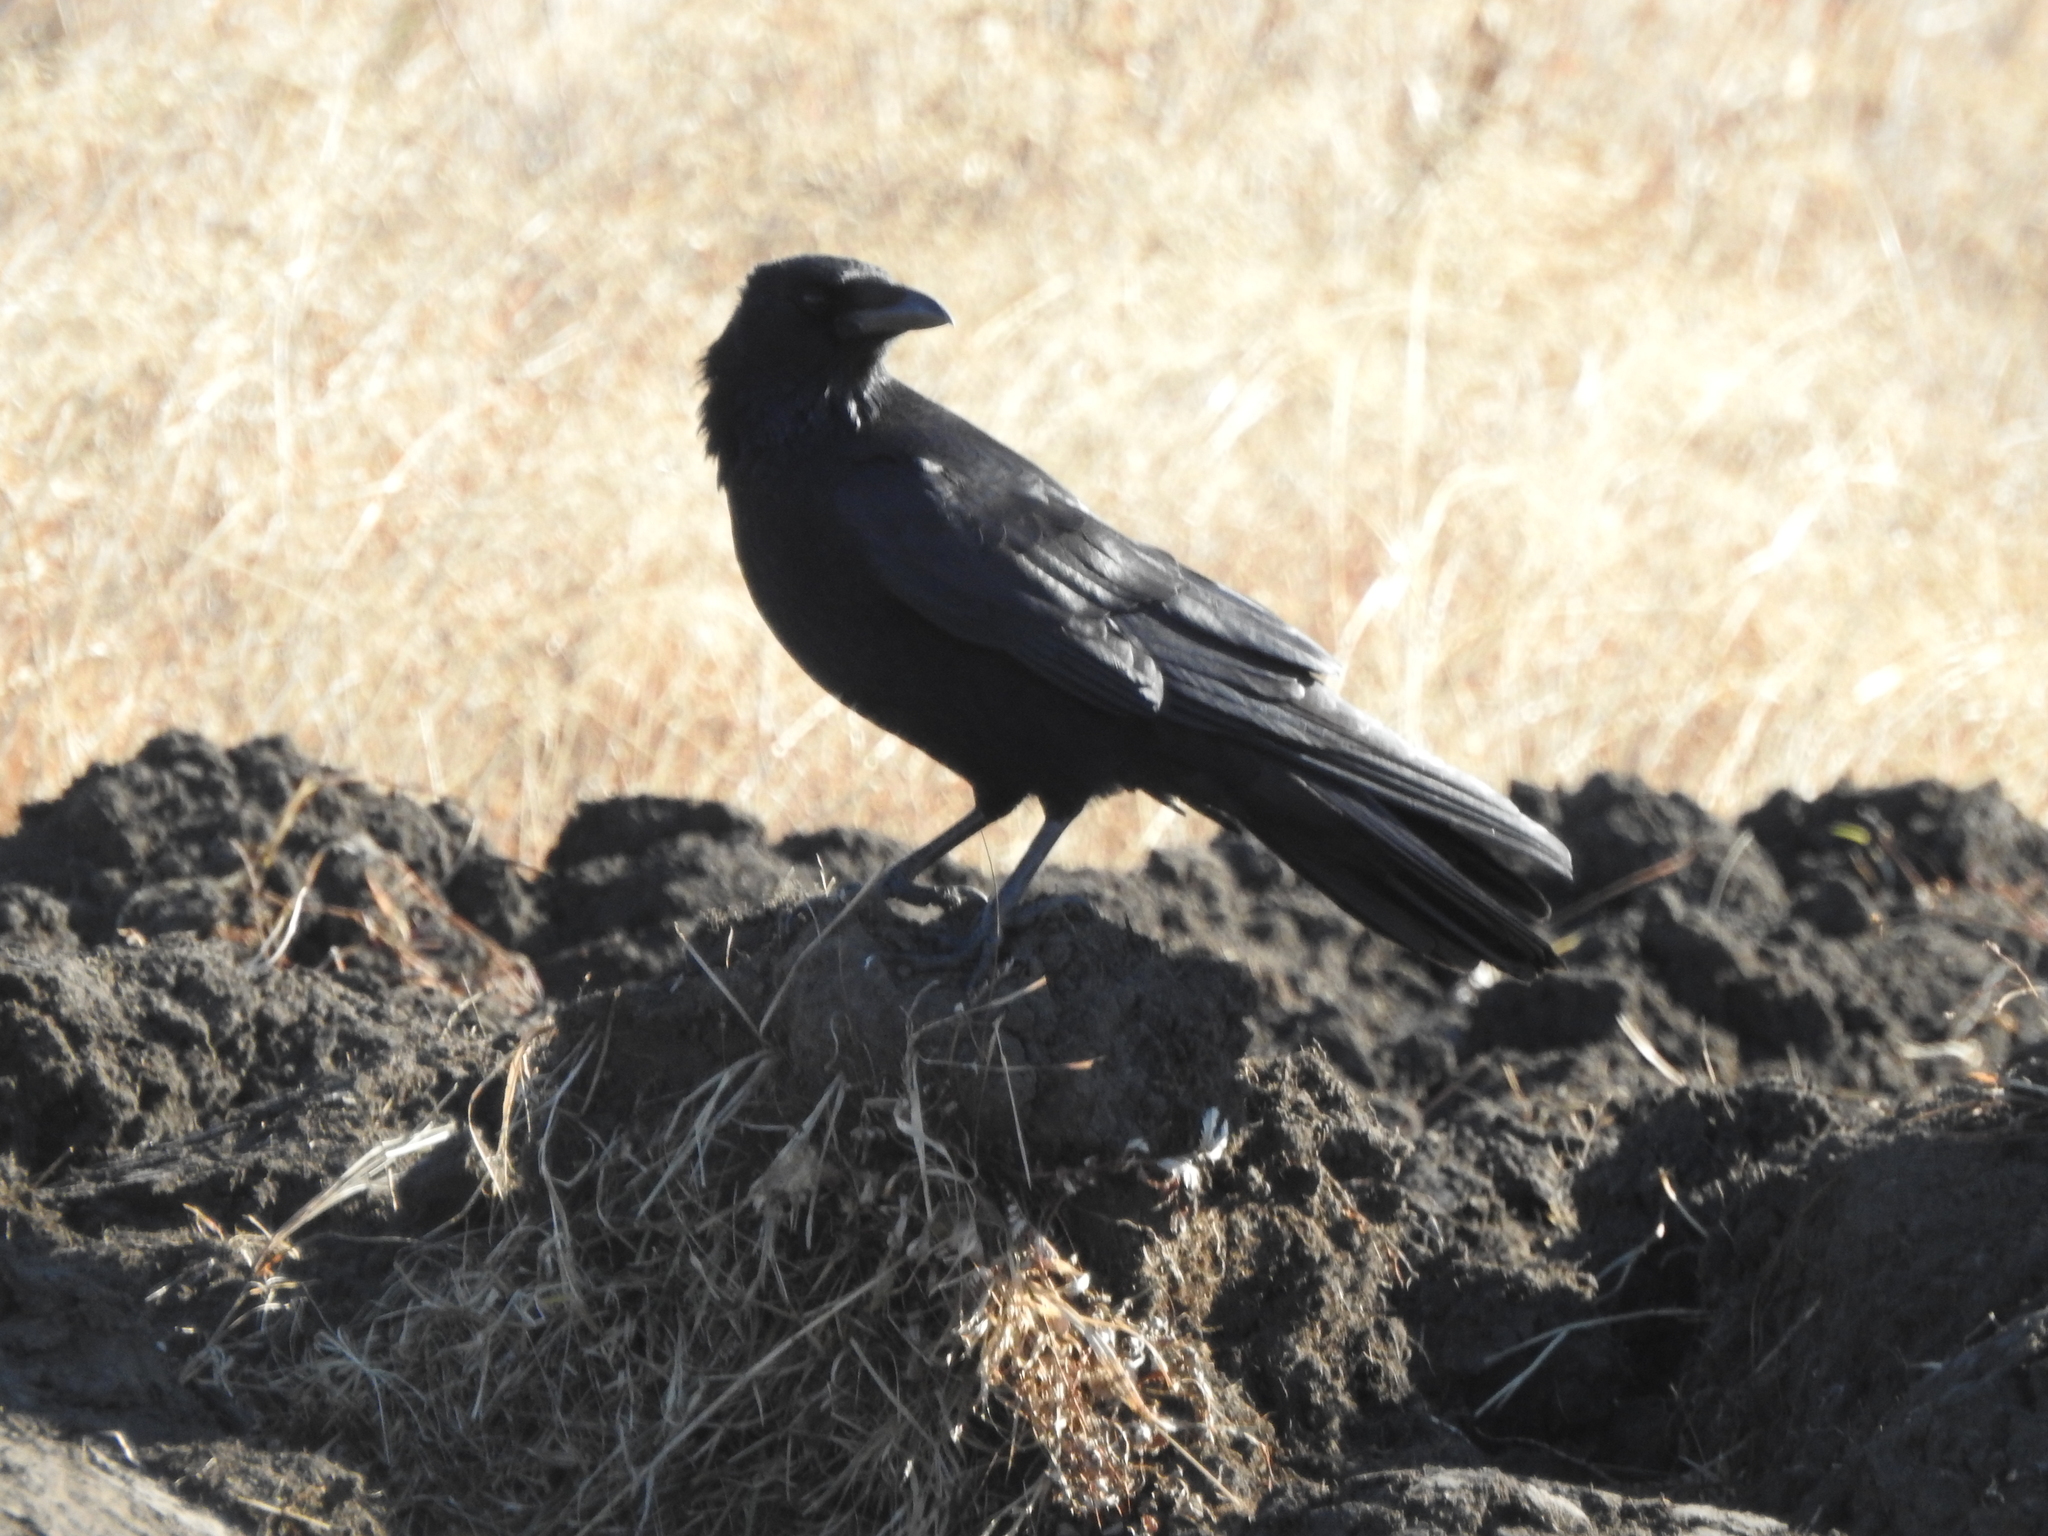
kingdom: Animalia
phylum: Chordata
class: Aves
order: Passeriformes
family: Corvidae
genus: Corvus
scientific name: Corvus corax
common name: Common raven
